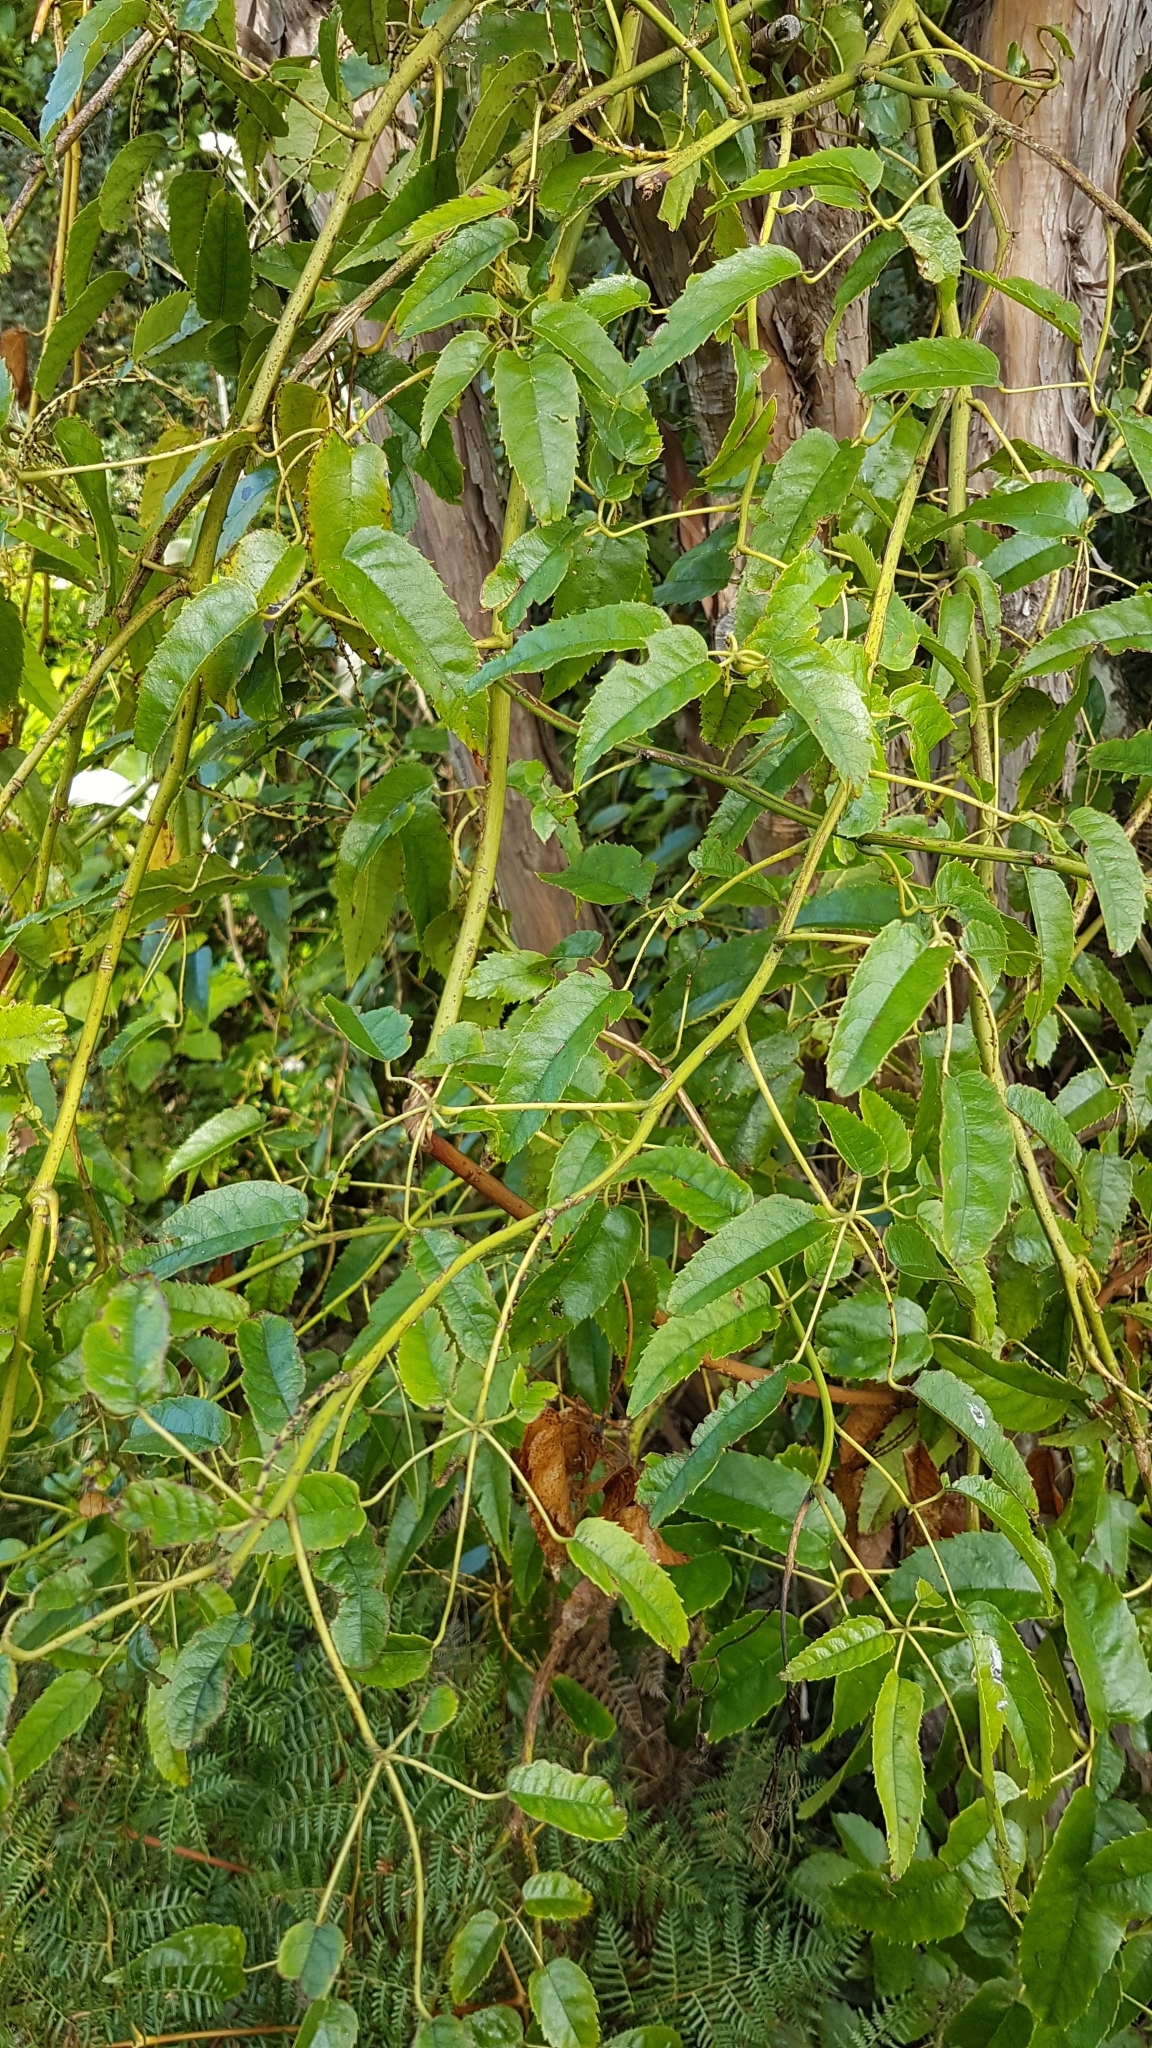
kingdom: Plantae
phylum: Tracheophyta
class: Magnoliopsida
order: Rosales
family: Rosaceae
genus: Rubus
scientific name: Rubus cissoides
